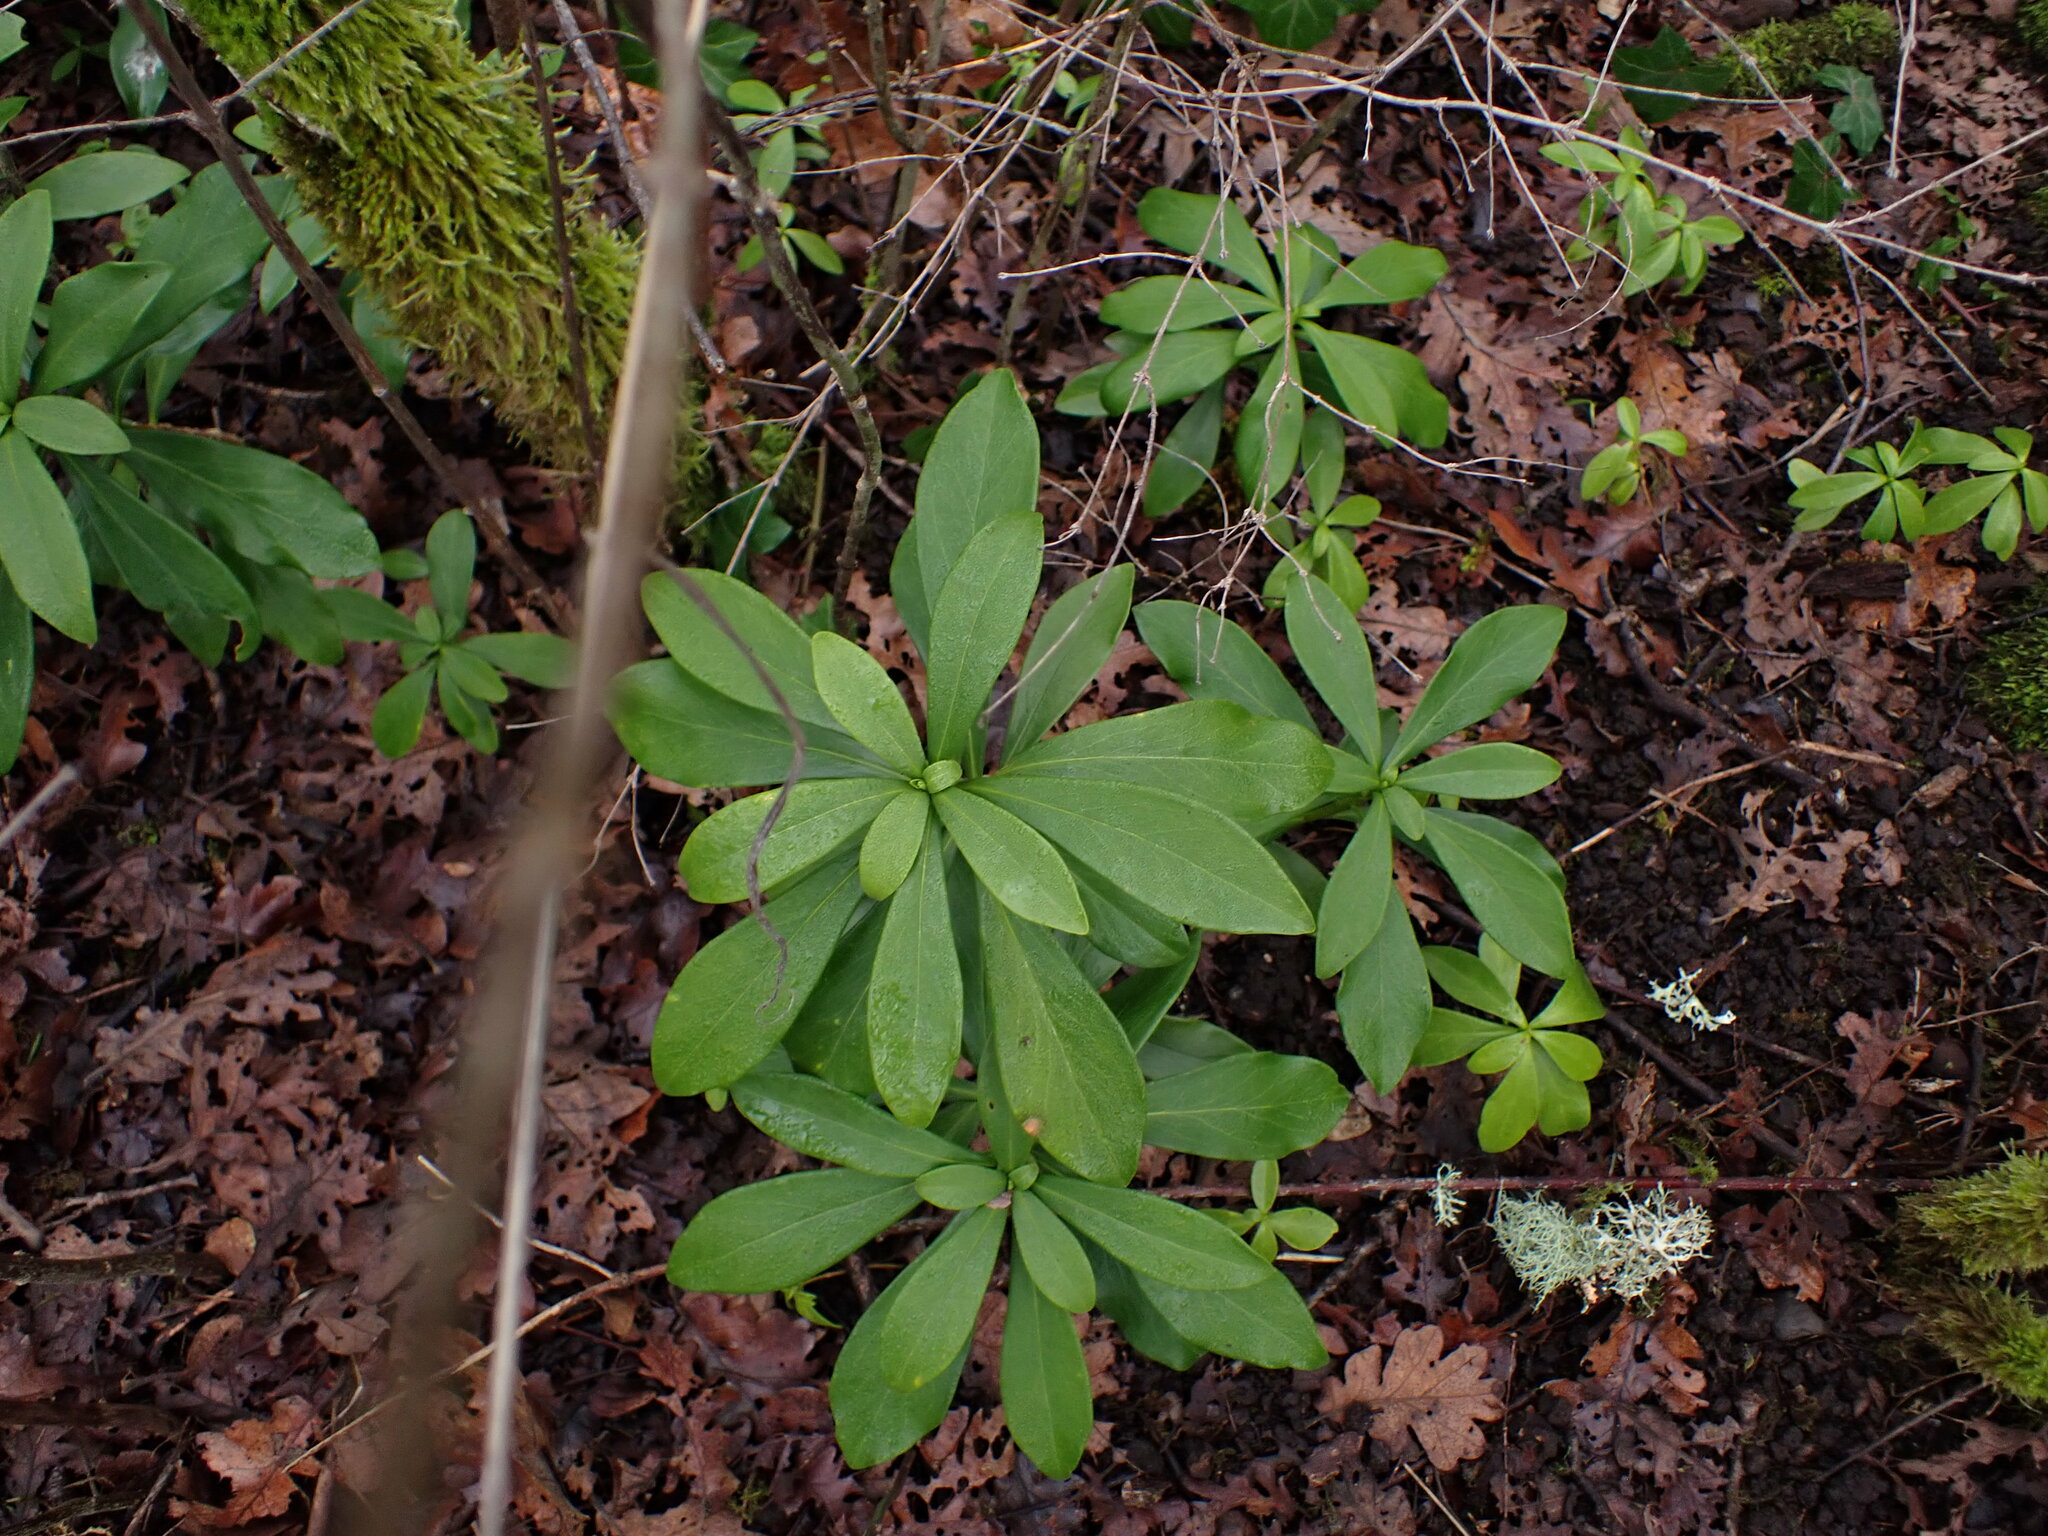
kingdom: Plantae
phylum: Tracheophyta
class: Magnoliopsida
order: Malvales
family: Thymelaeaceae
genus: Daphne
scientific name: Daphne laureola
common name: Spurge-laurel
